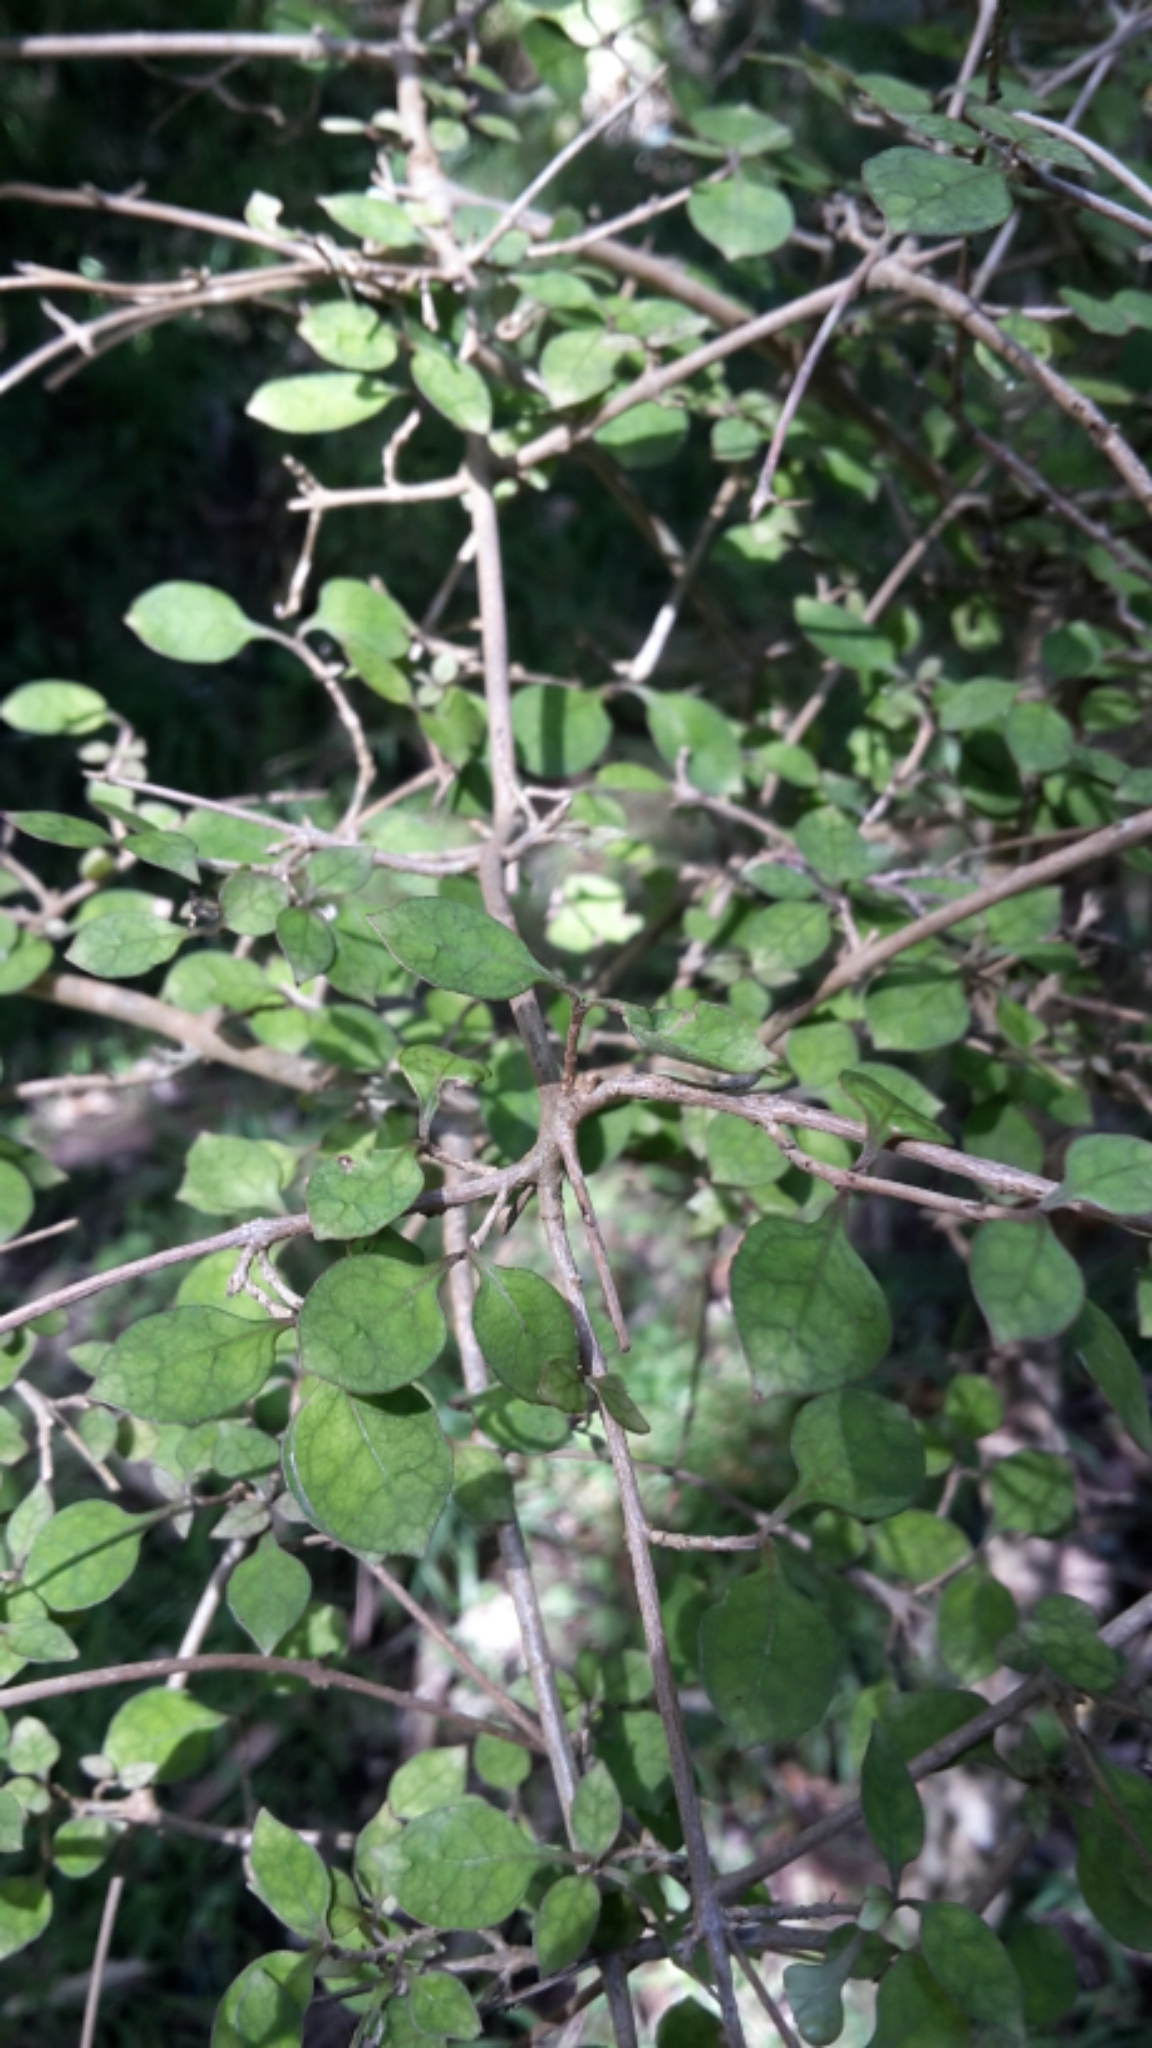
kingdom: Plantae
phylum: Tracheophyta
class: Magnoliopsida
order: Gentianales
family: Rubiaceae
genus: Coprosma
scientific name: Coprosma areolata
